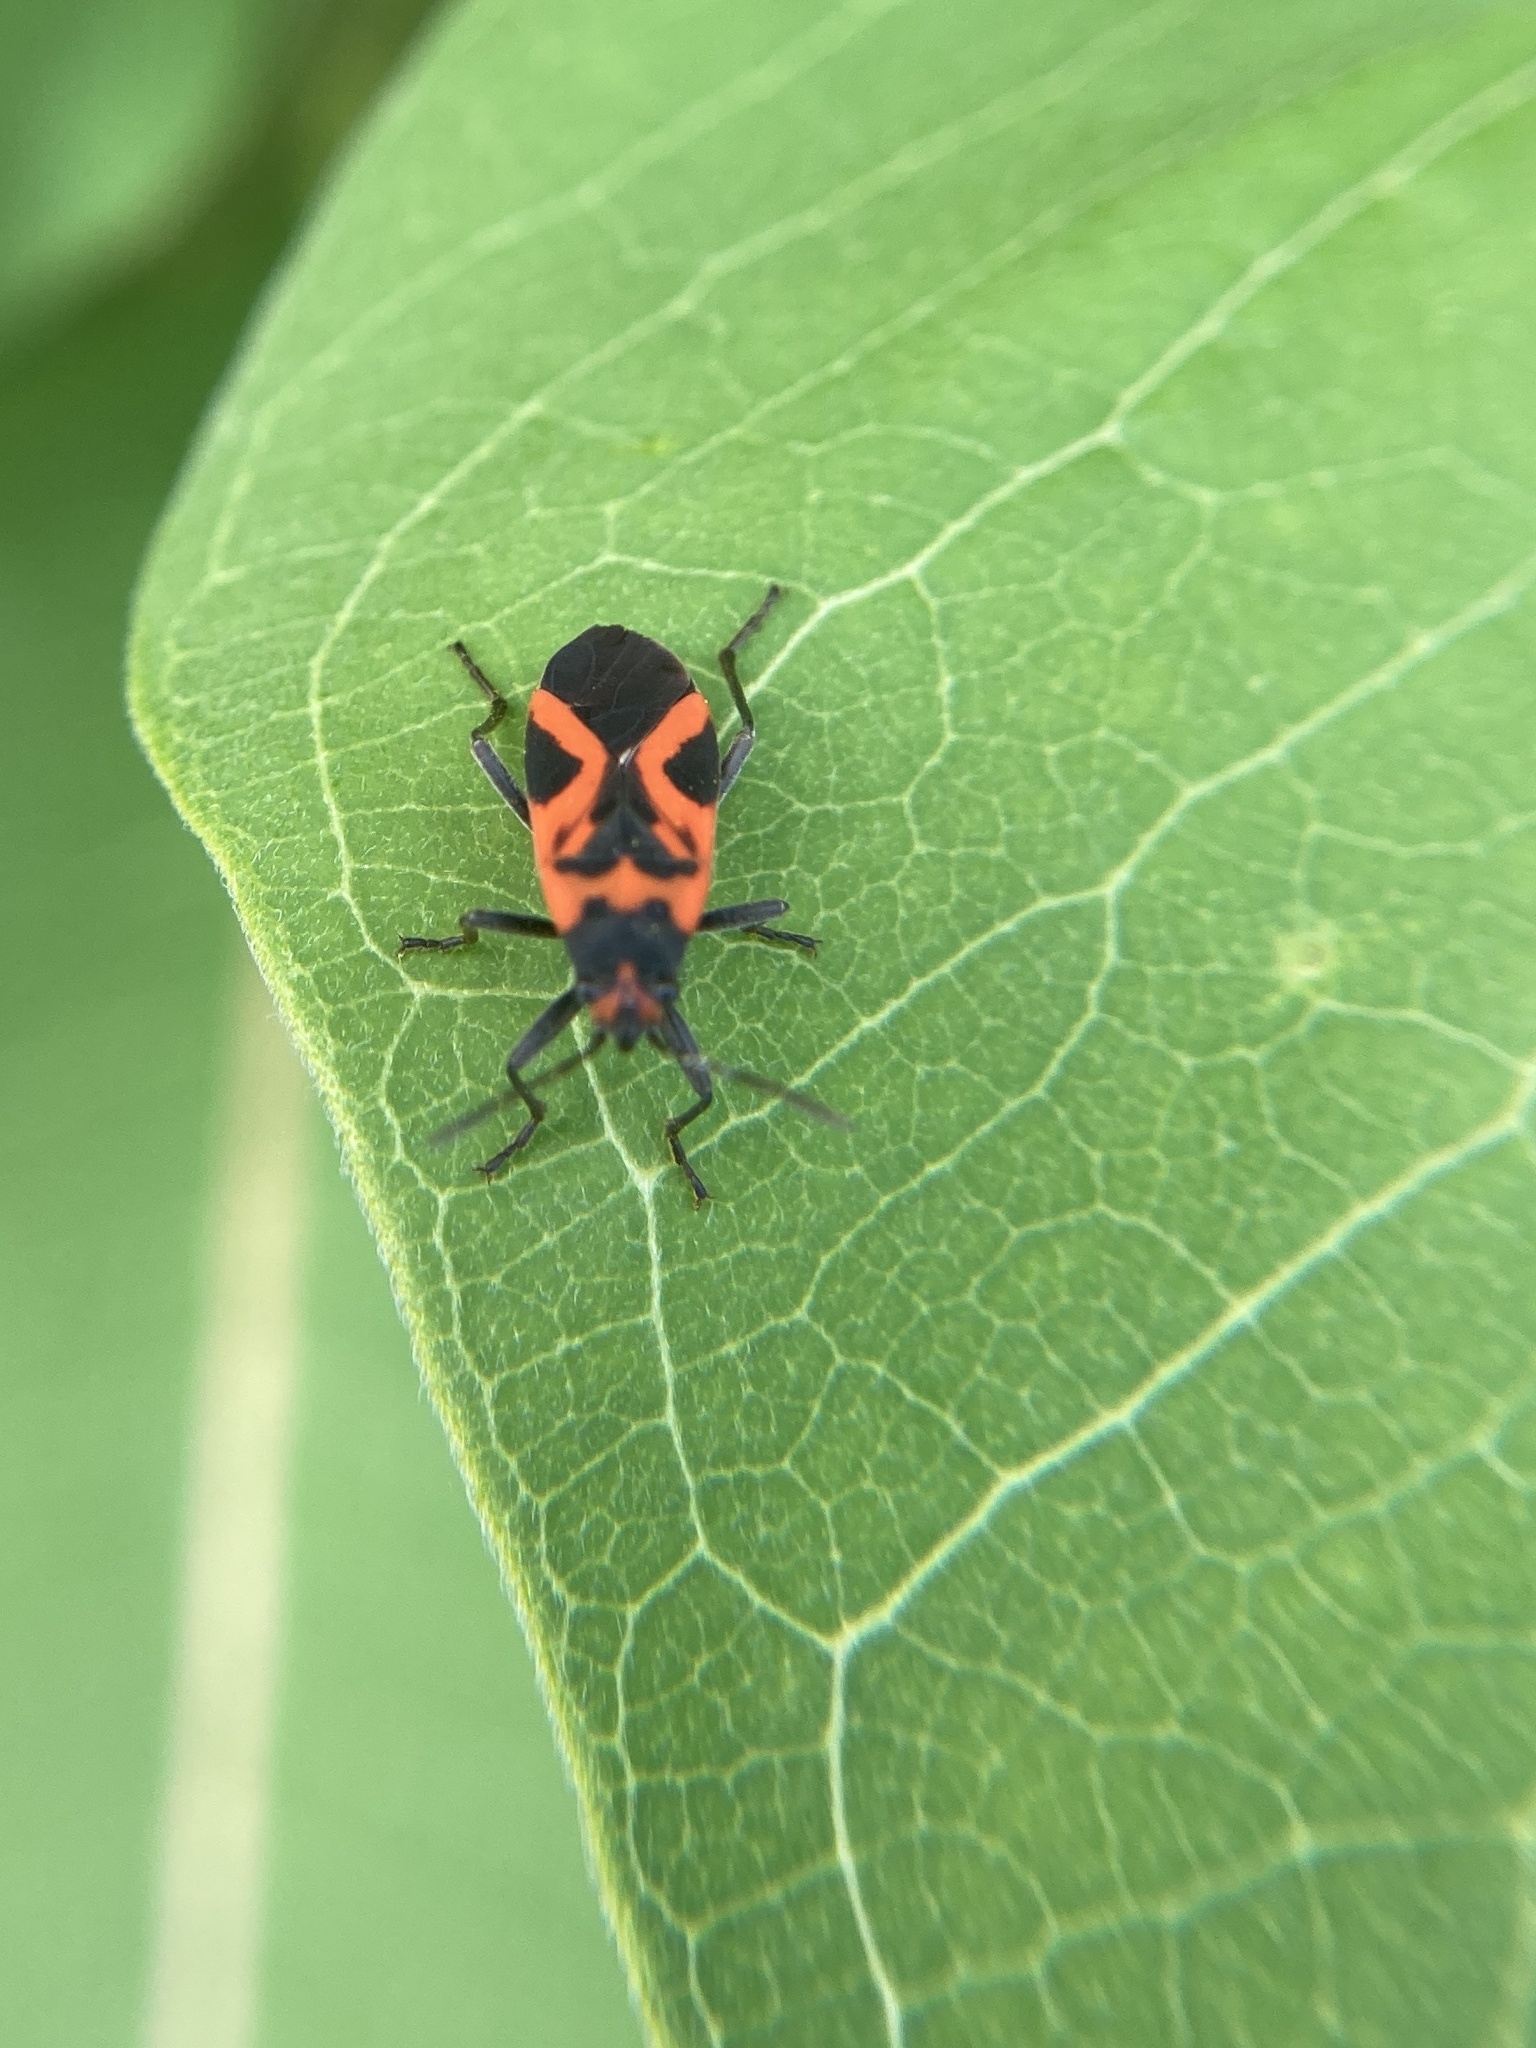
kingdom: Animalia
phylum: Arthropoda
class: Insecta
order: Hemiptera
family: Lygaeidae
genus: Lygaeus
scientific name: Lygaeus turcicus
